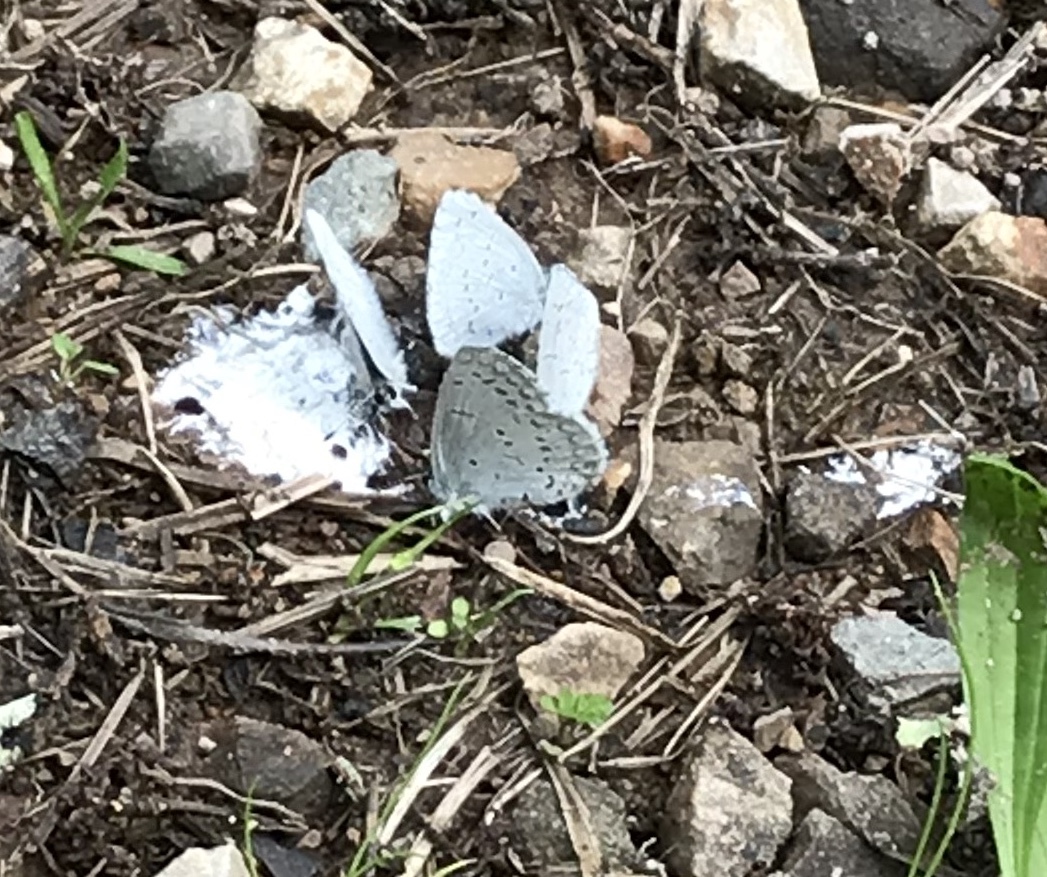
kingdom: Animalia
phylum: Arthropoda
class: Insecta
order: Lepidoptera
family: Lycaenidae
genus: Celastrina
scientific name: Celastrina ladon
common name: Spring azure
